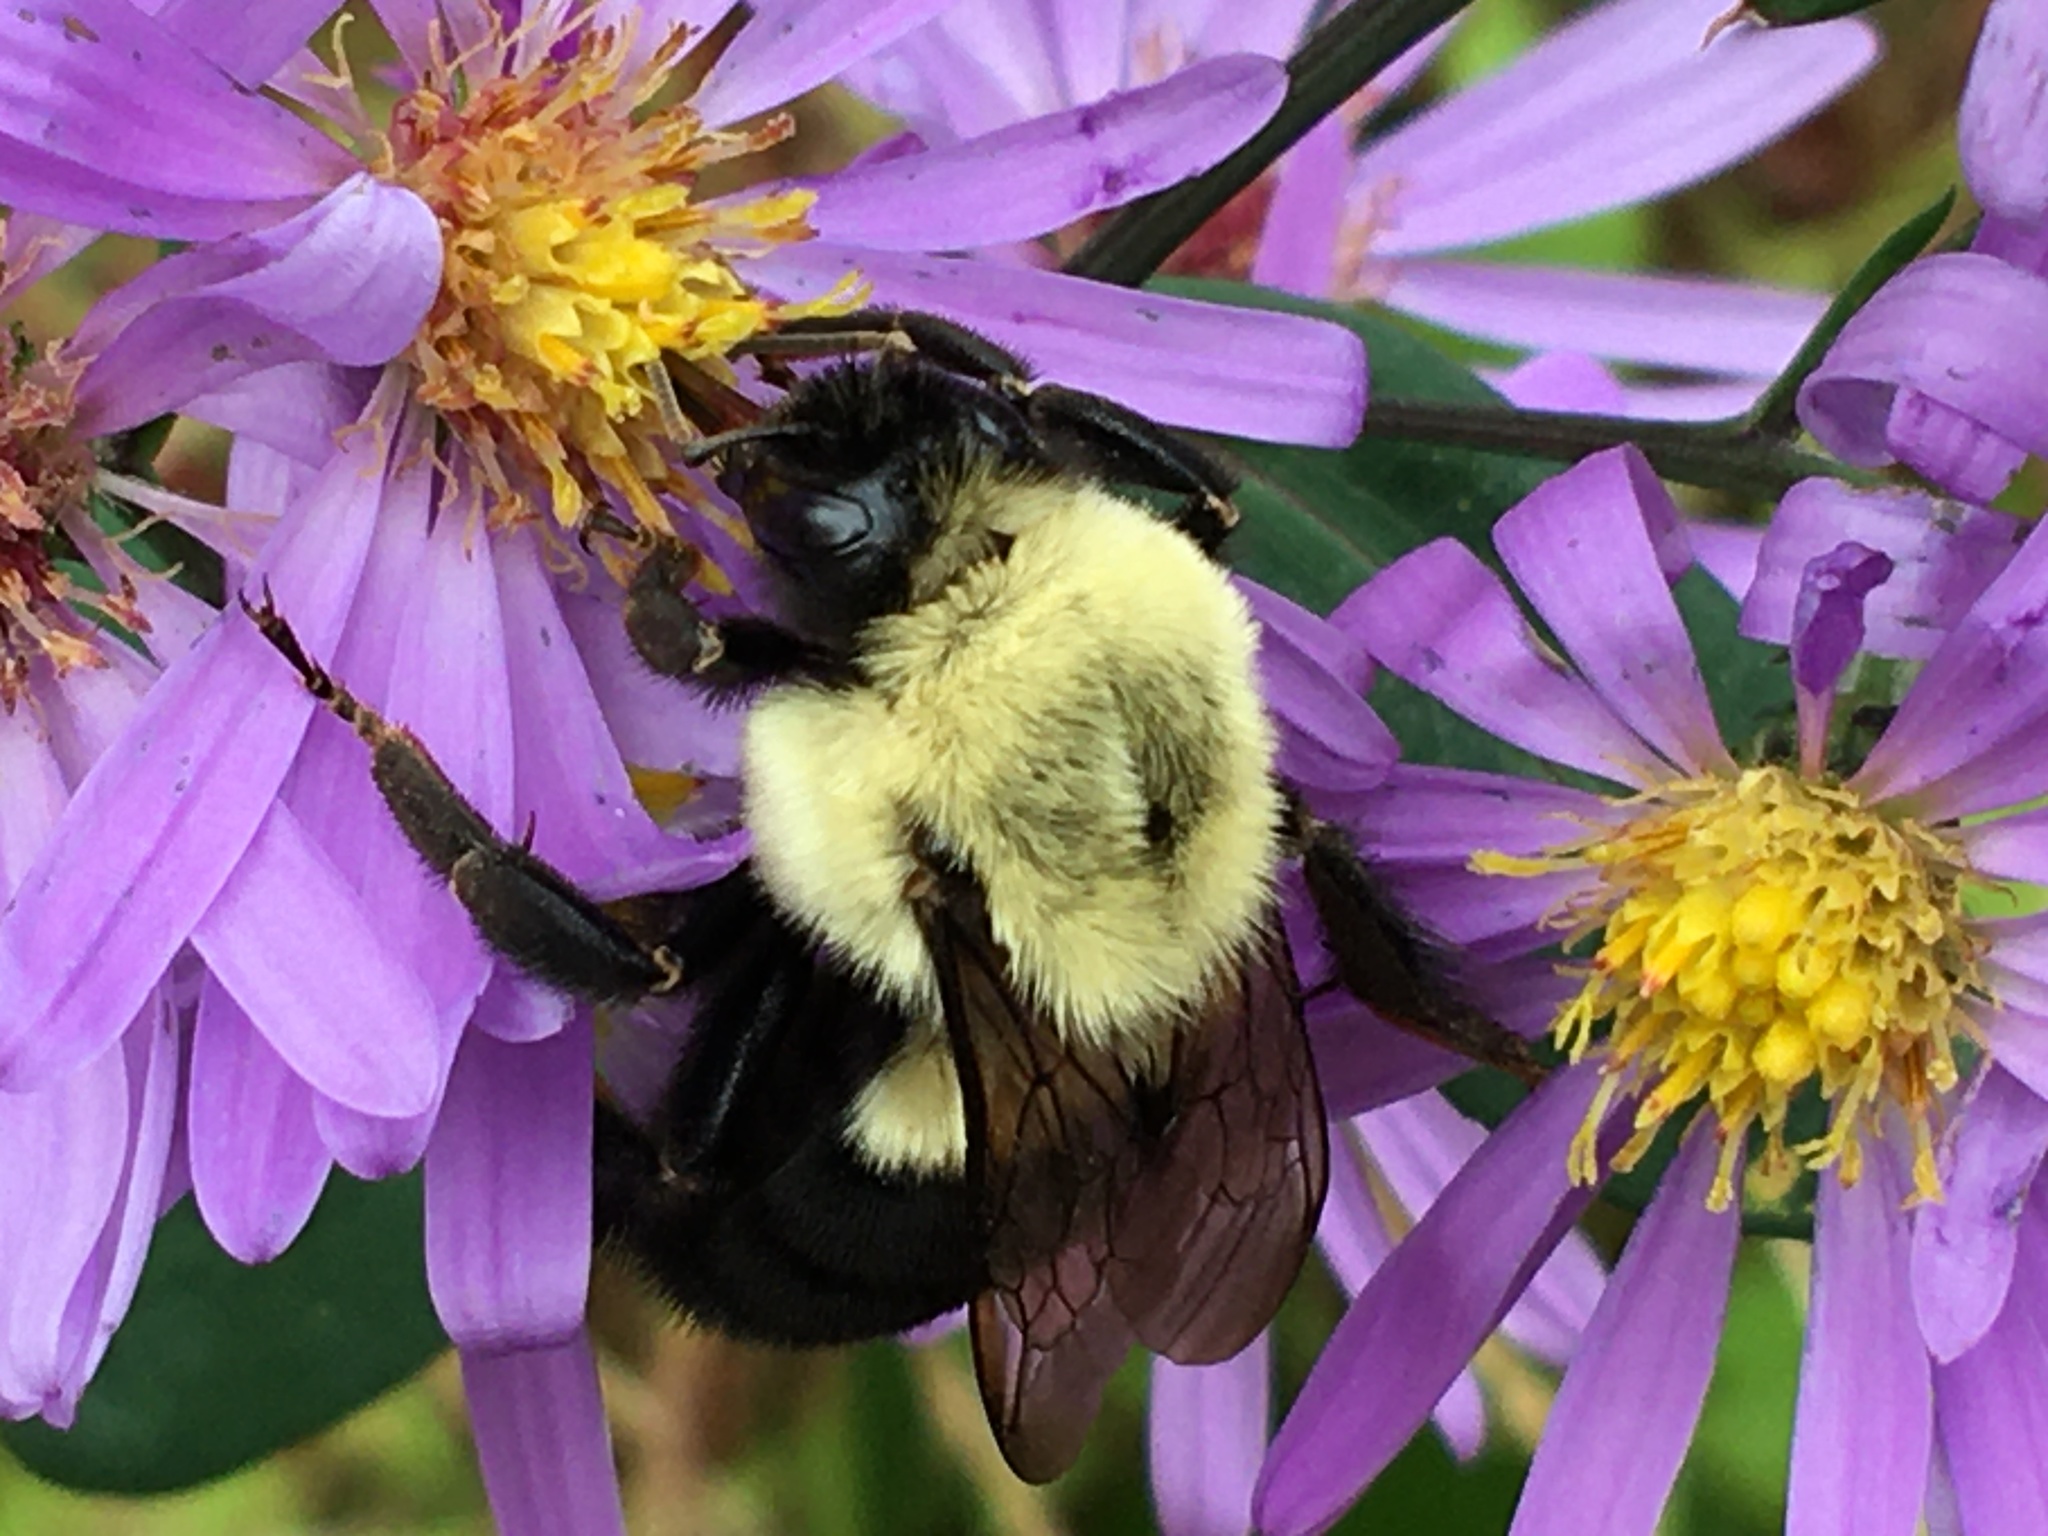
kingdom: Animalia
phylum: Arthropoda
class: Insecta
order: Hymenoptera
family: Apidae
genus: Bombus
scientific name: Bombus impatiens
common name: Common eastern bumble bee
